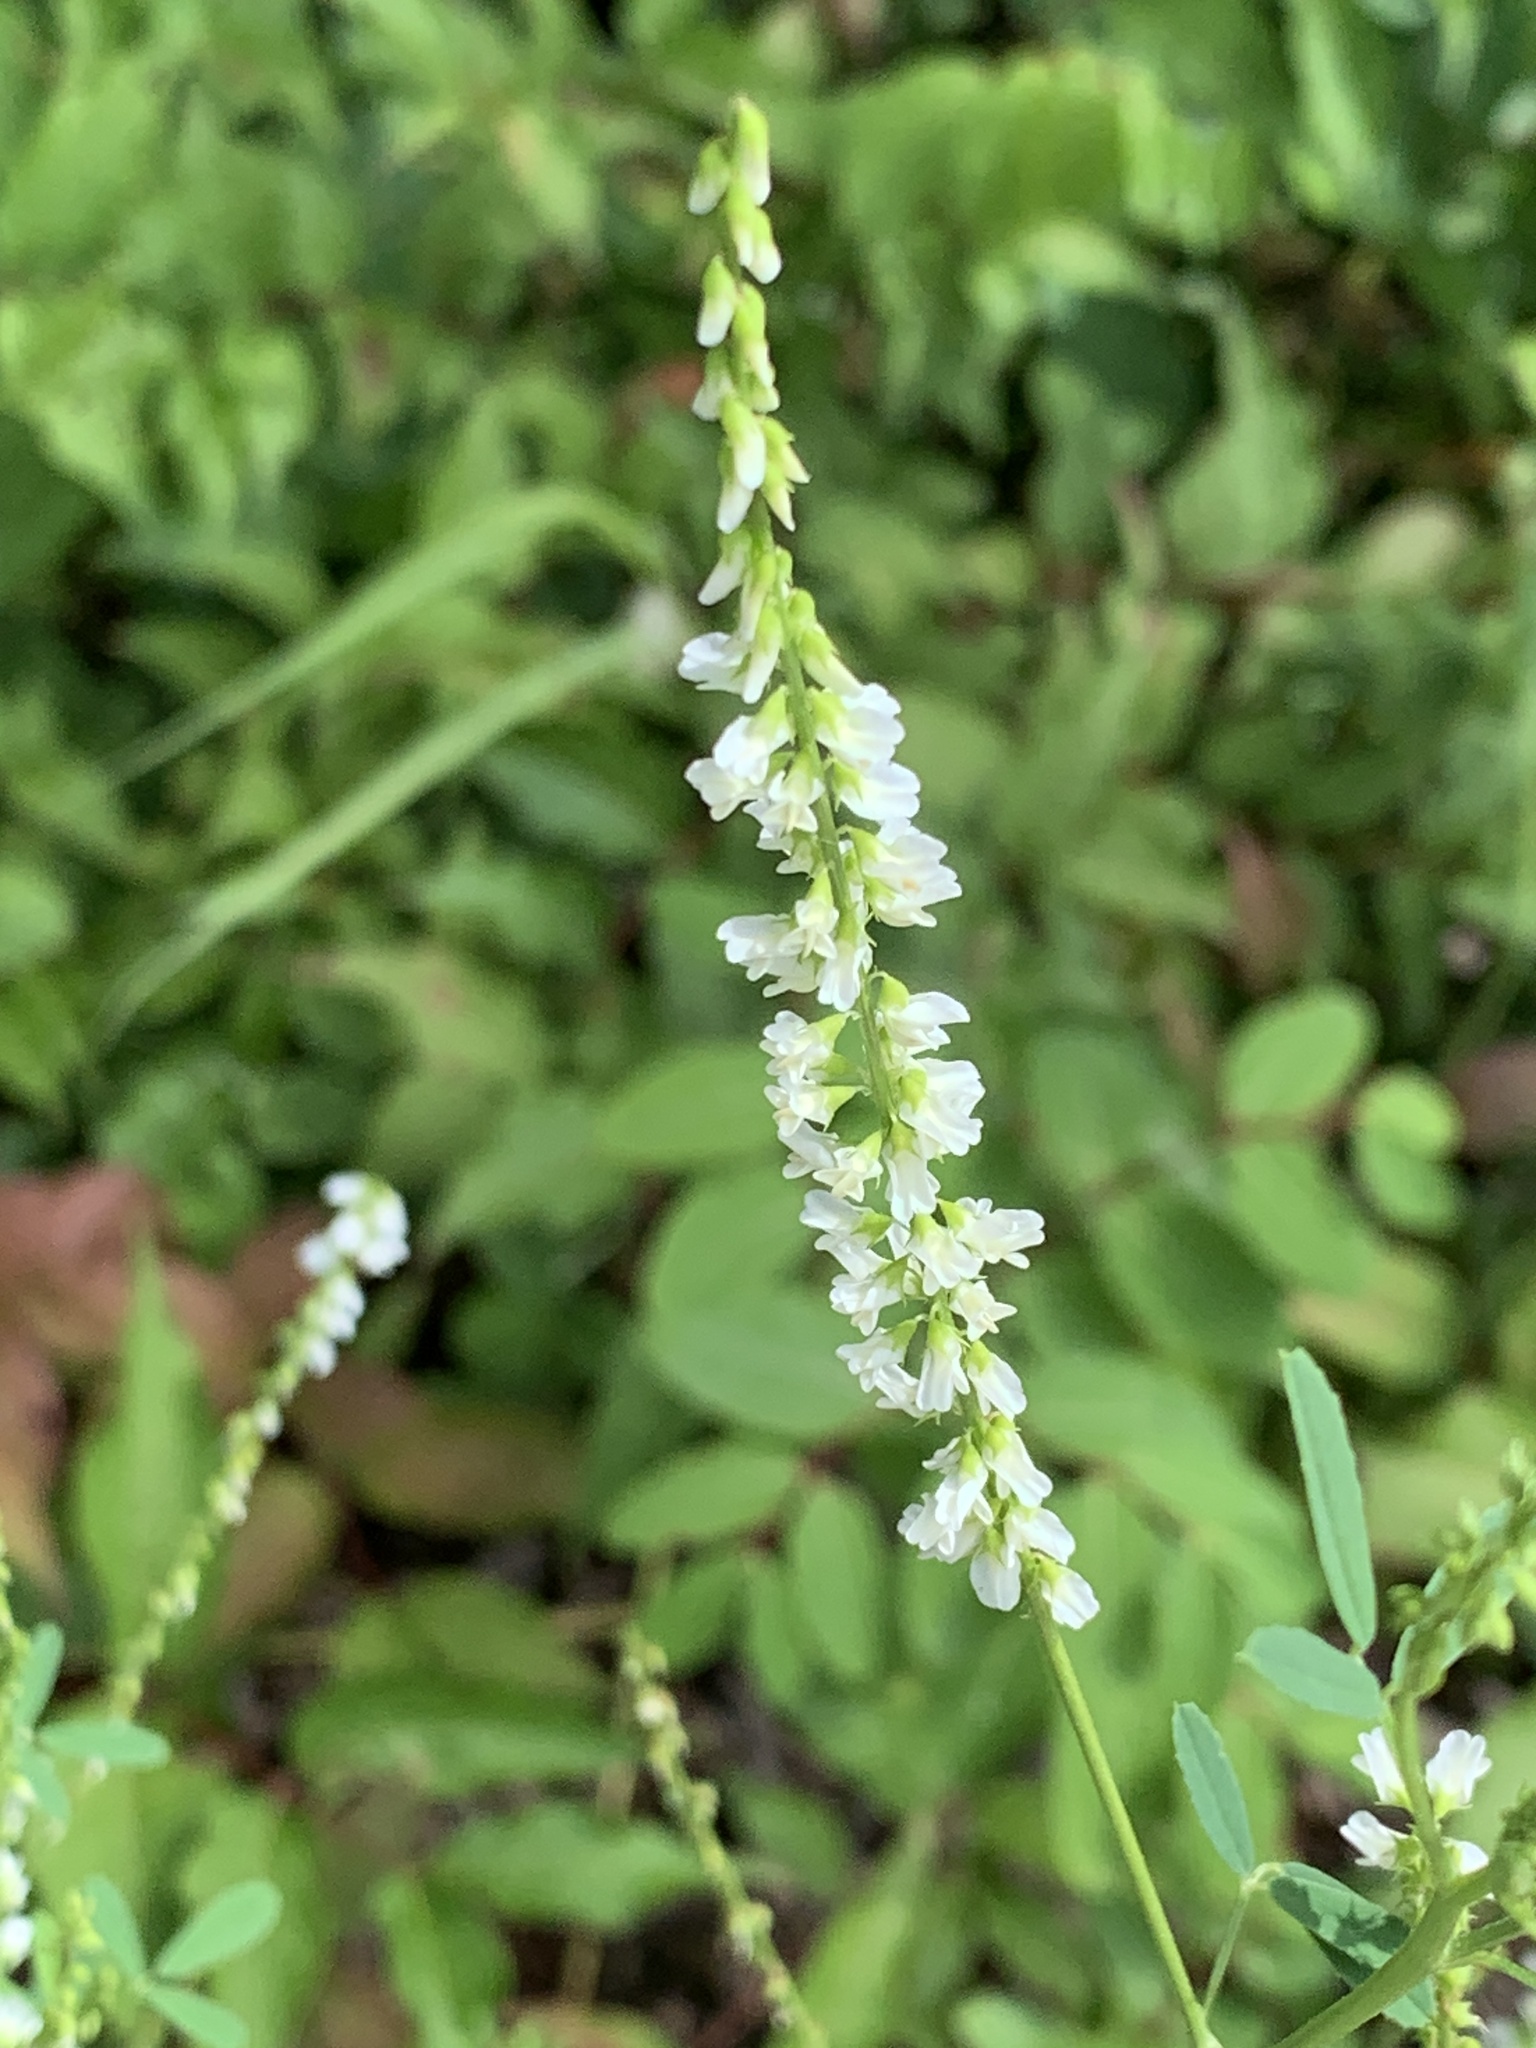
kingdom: Plantae
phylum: Tracheophyta
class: Magnoliopsida
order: Fabales
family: Fabaceae
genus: Melilotus
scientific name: Melilotus albus
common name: White melilot
